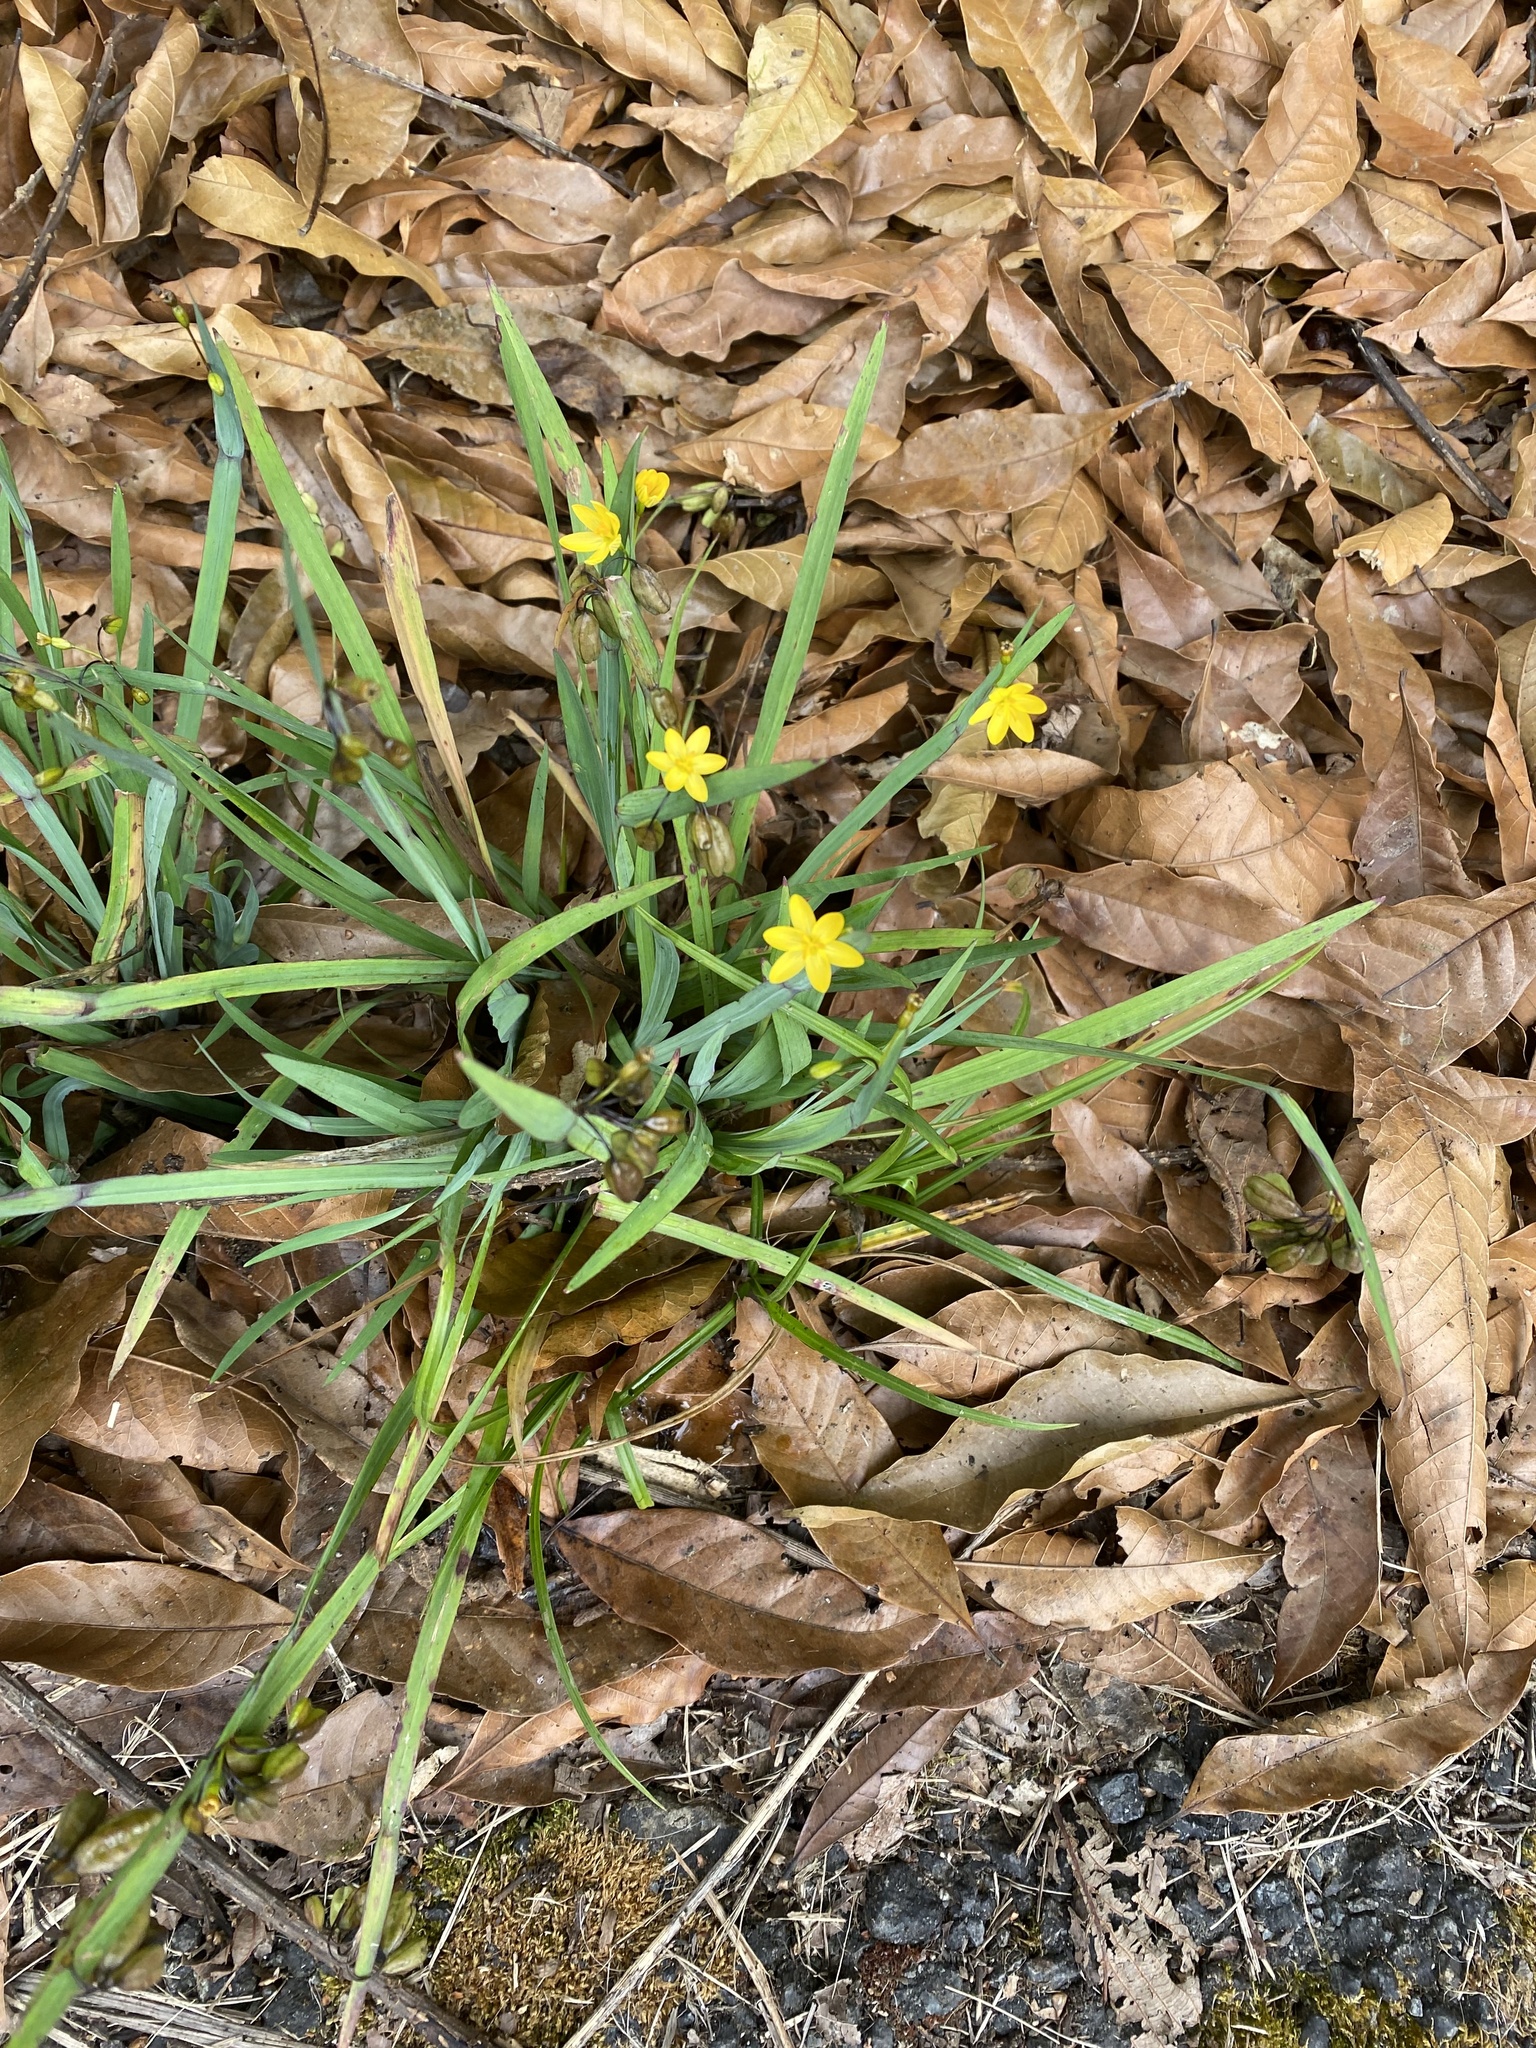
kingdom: Plantae
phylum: Tracheophyta
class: Liliopsida
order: Asparagales
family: Iridaceae
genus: Sisyrinchium
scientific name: Sisyrinchium tinctorium
